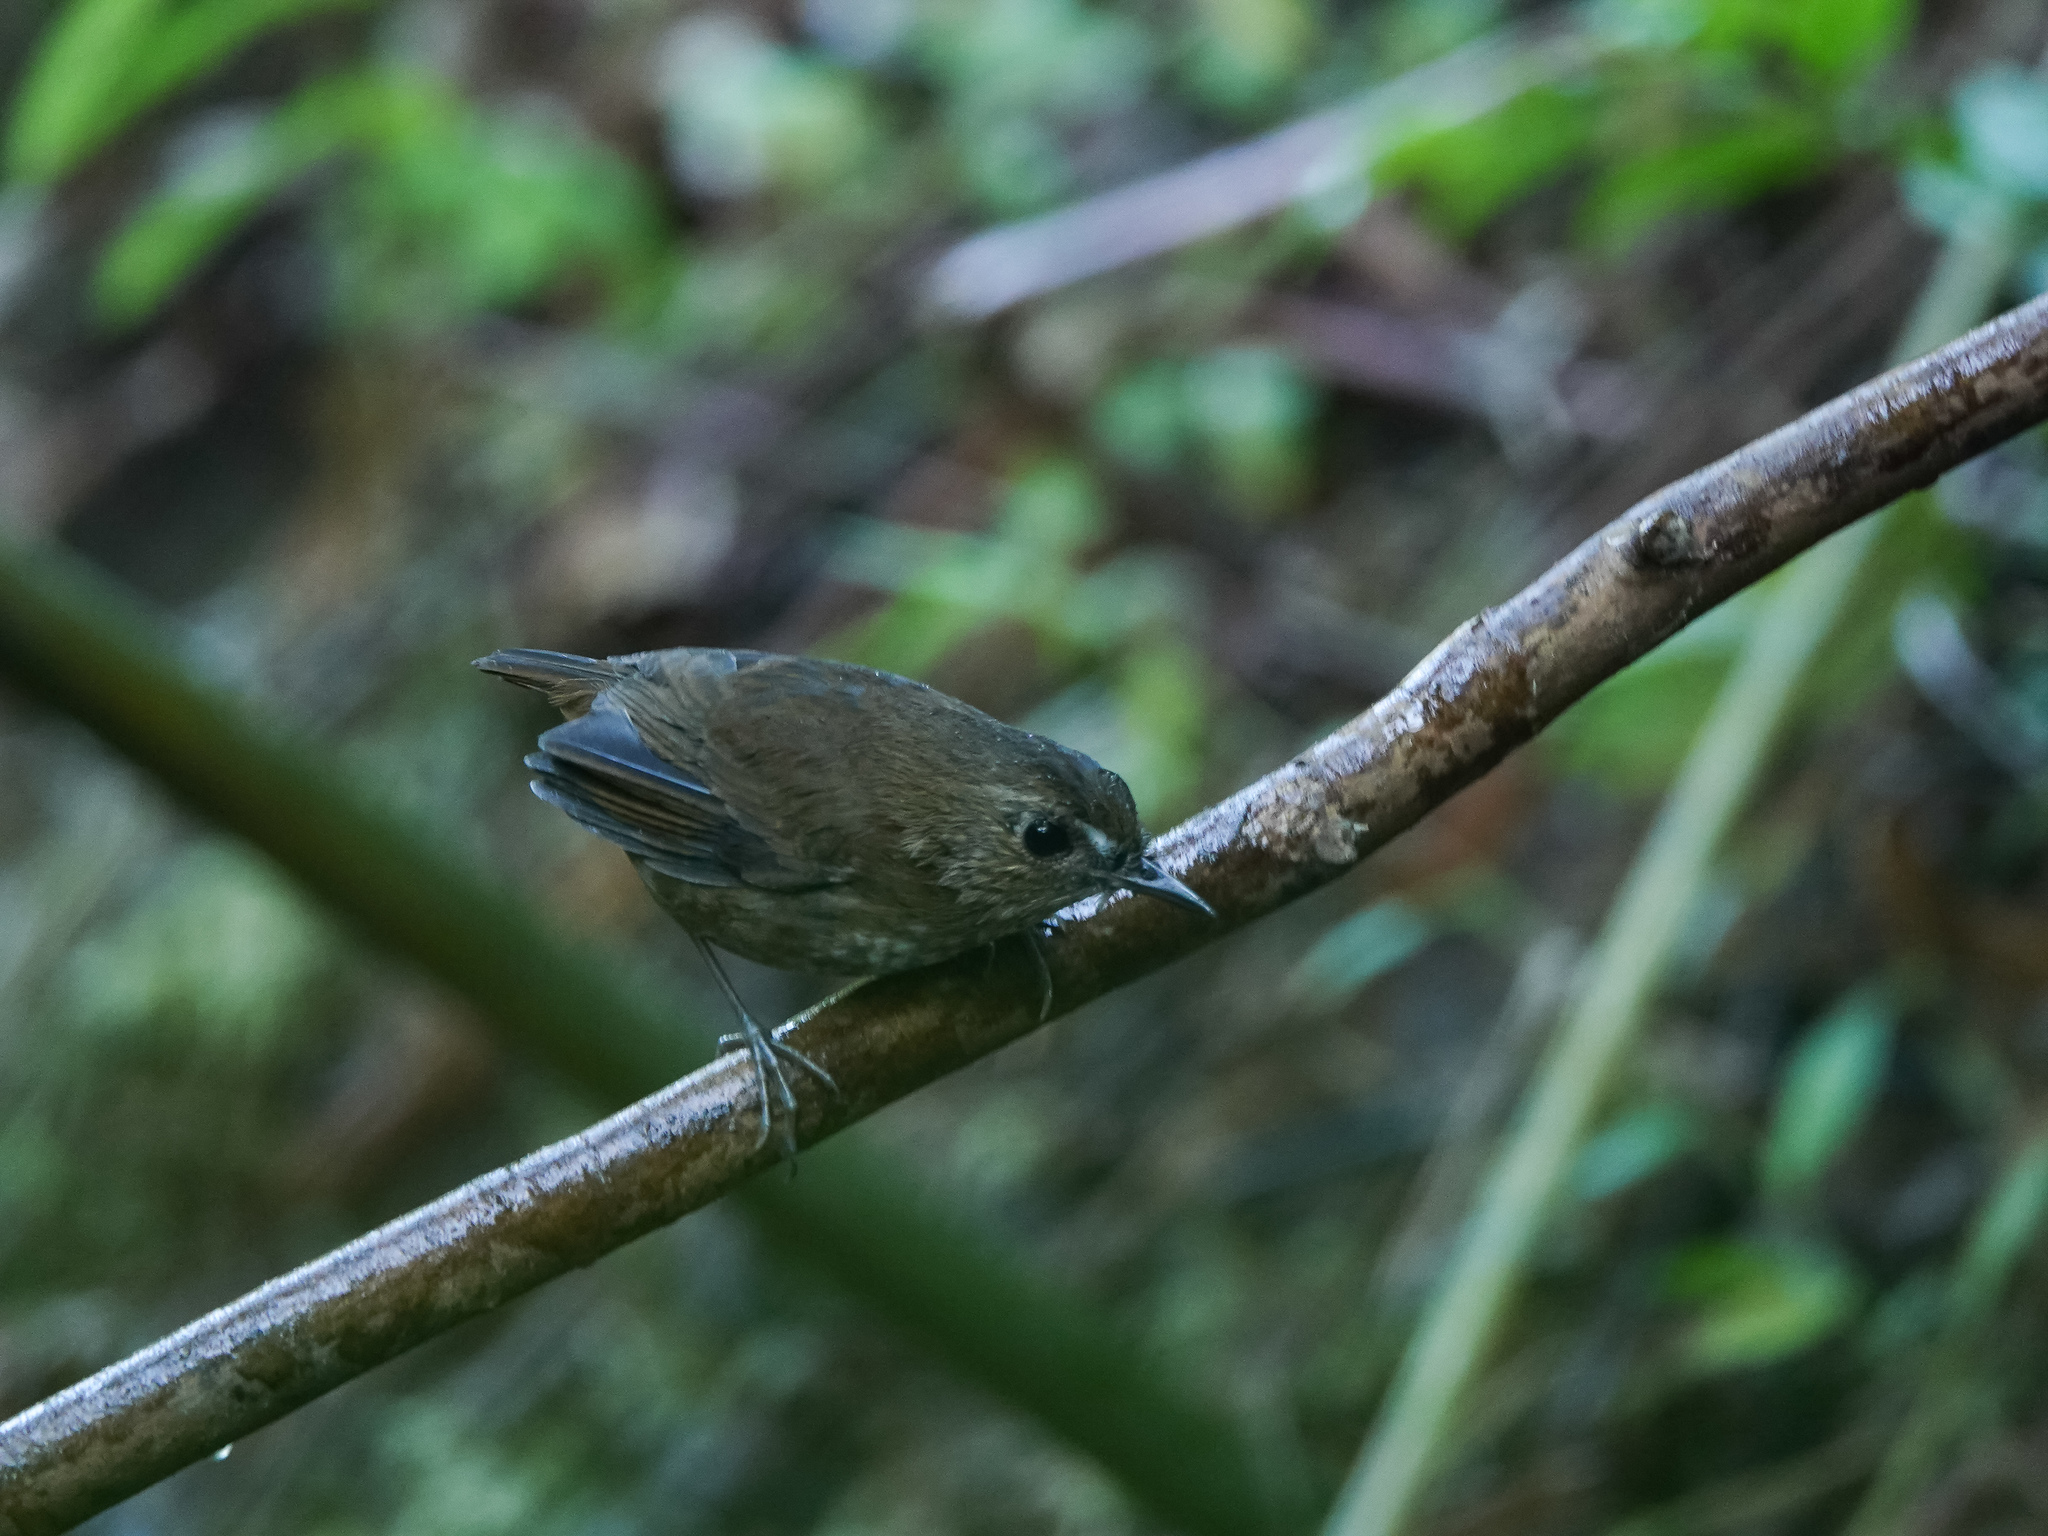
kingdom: Animalia
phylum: Chordata
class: Aves
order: Passeriformes
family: Muscicapidae
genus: Brachypteryx
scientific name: Brachypteryx leucophris
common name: Lesser shortwing
